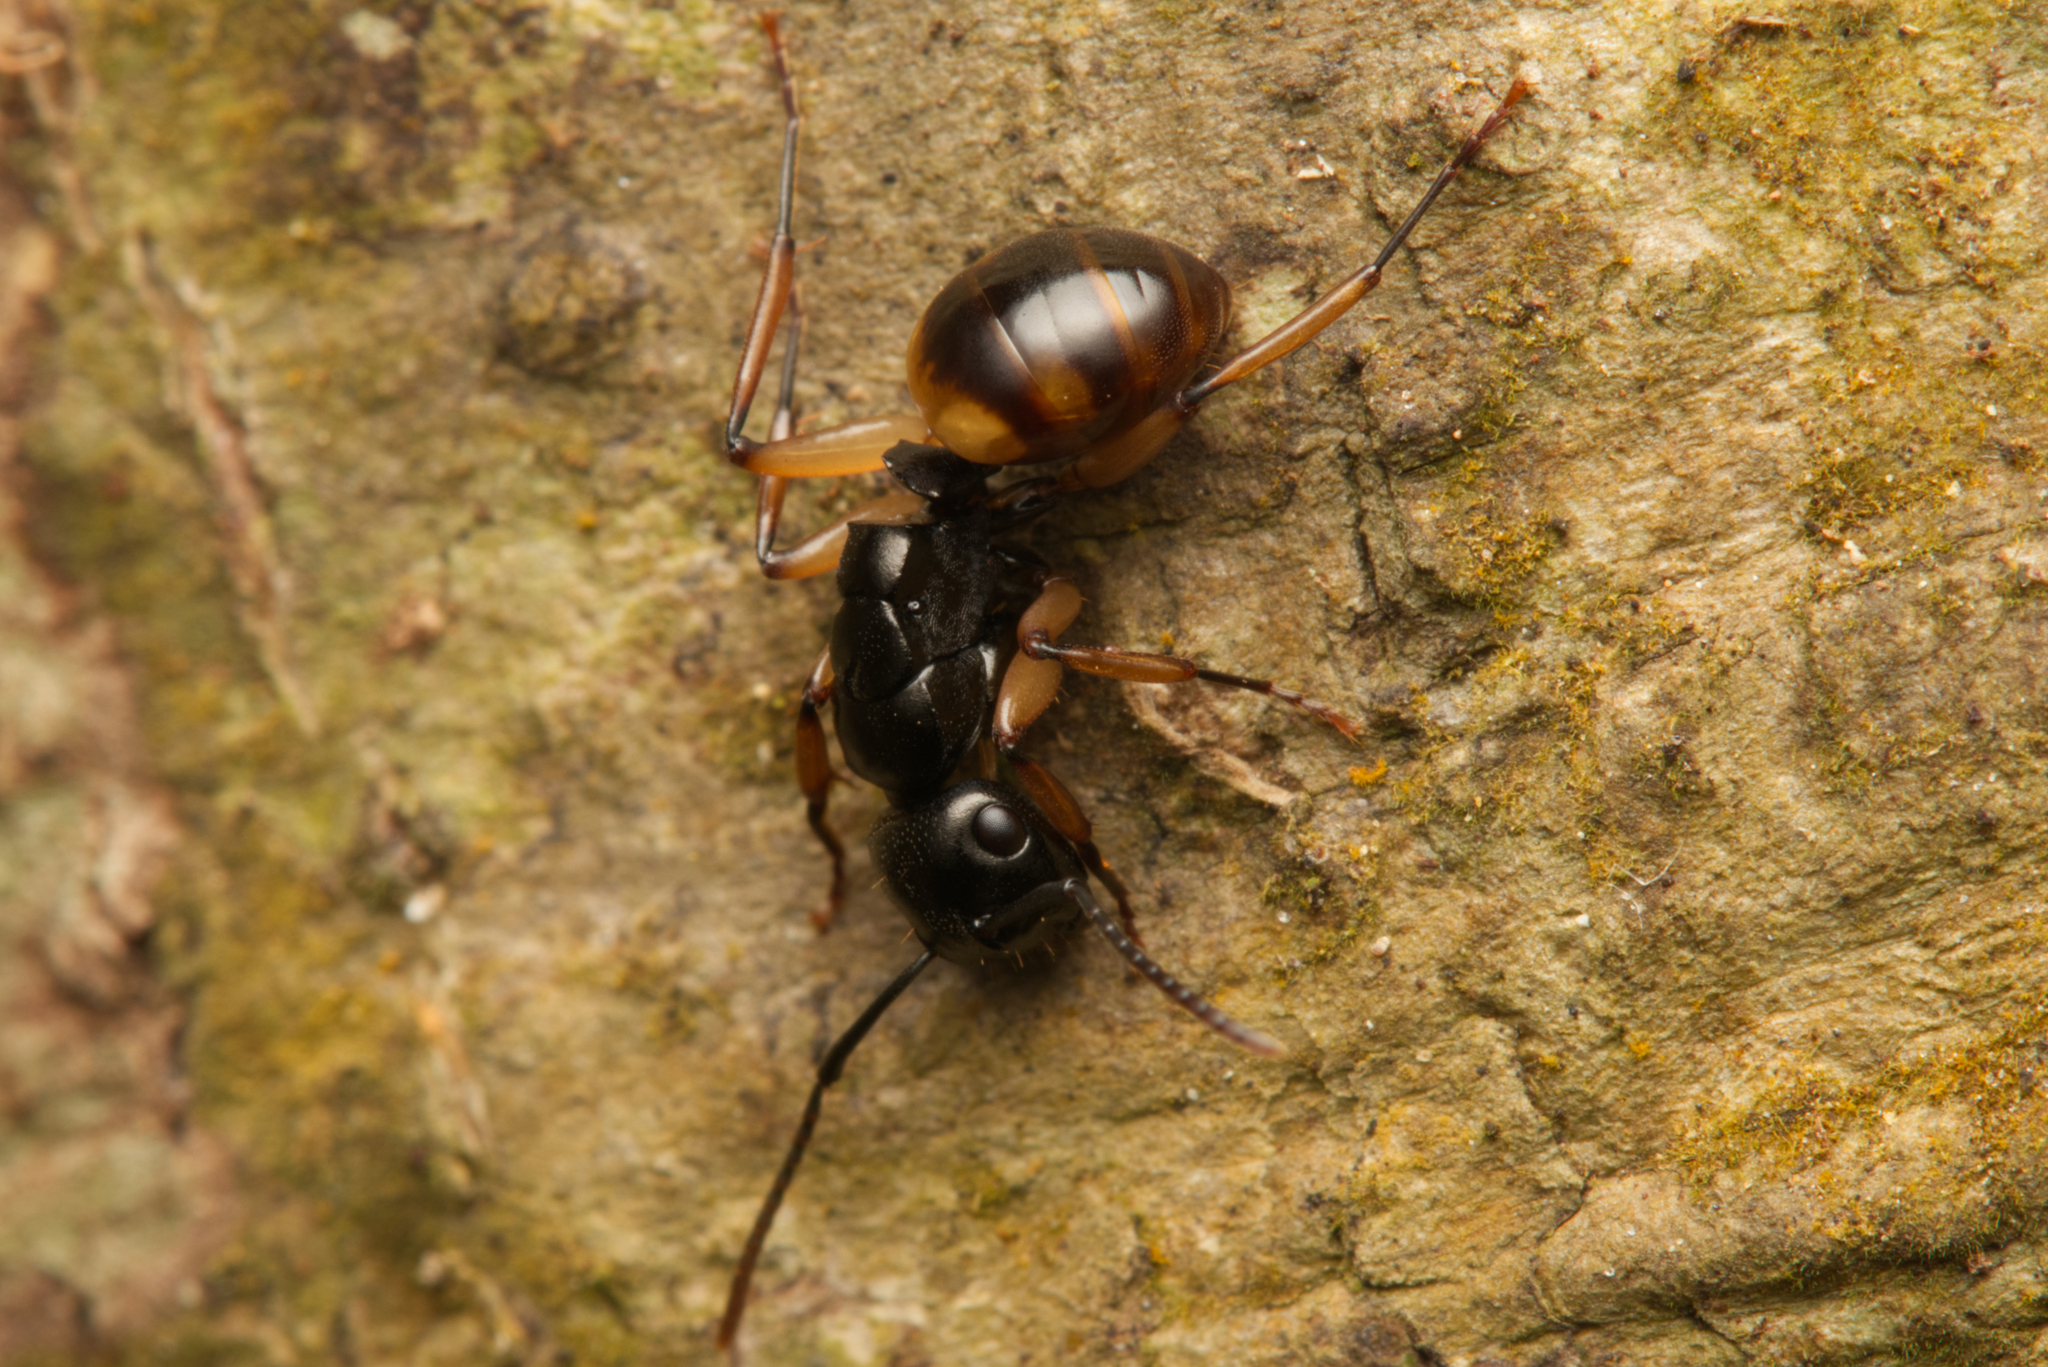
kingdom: Animalia
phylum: Arthropoda
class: Insecta
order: Hymenoptera
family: Formicidae
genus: Polyrhachis
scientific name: Polyrhachis flavibasis
